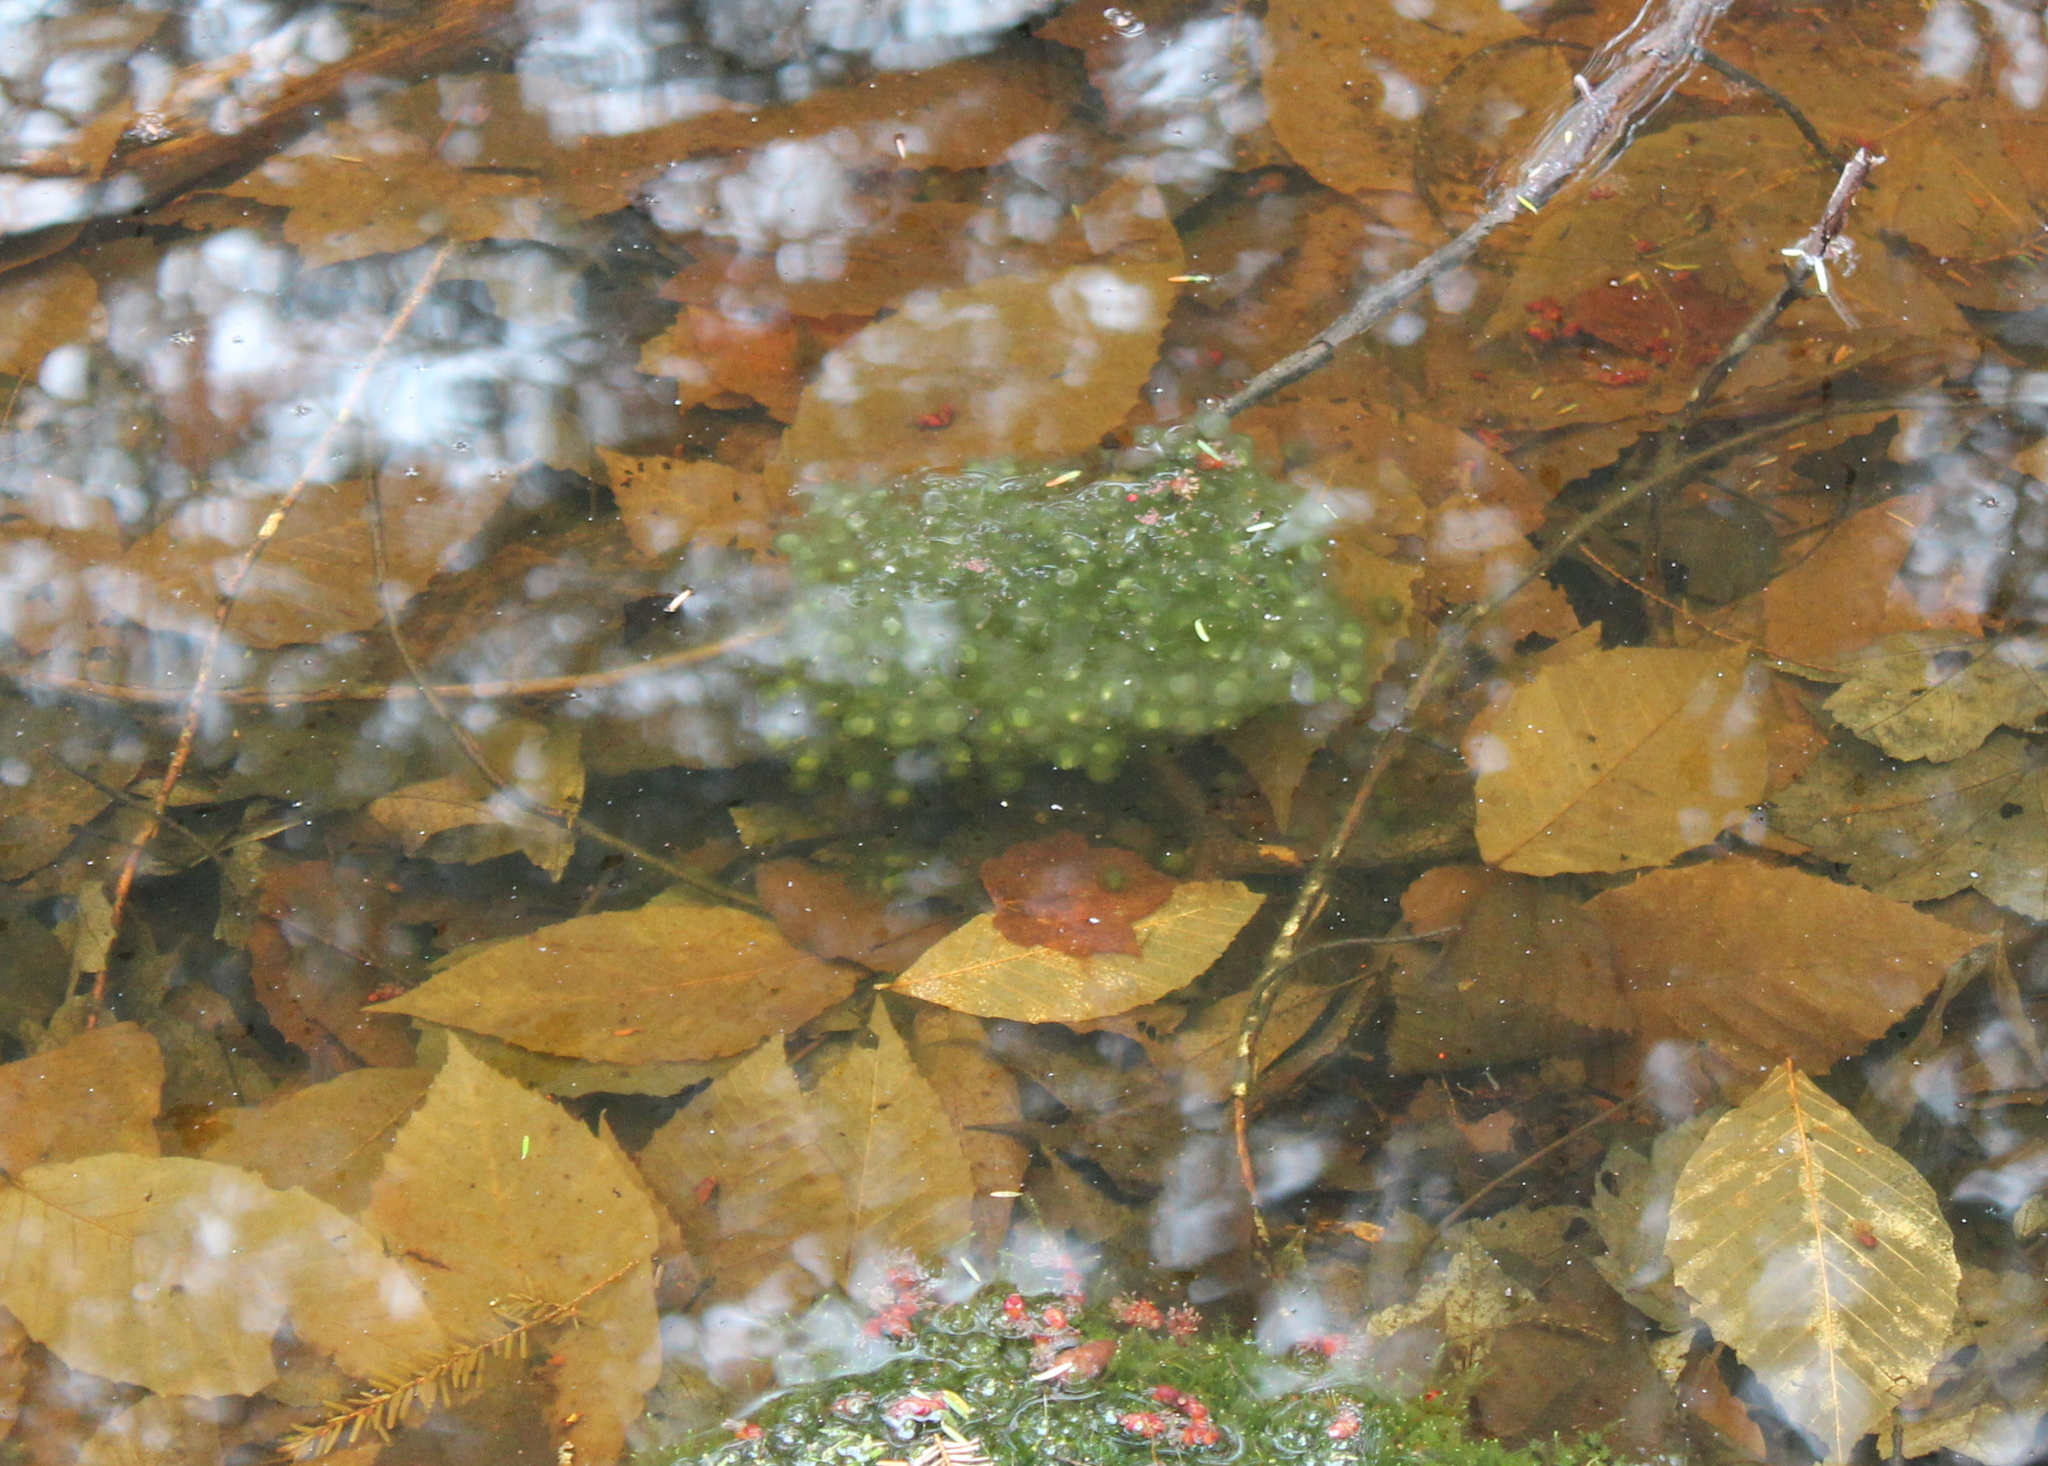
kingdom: Animalia
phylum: Chordata
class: Amphibia
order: Anura
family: Ranidae
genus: Lithobates
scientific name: Lithobates sylvaticus
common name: Wood frog
